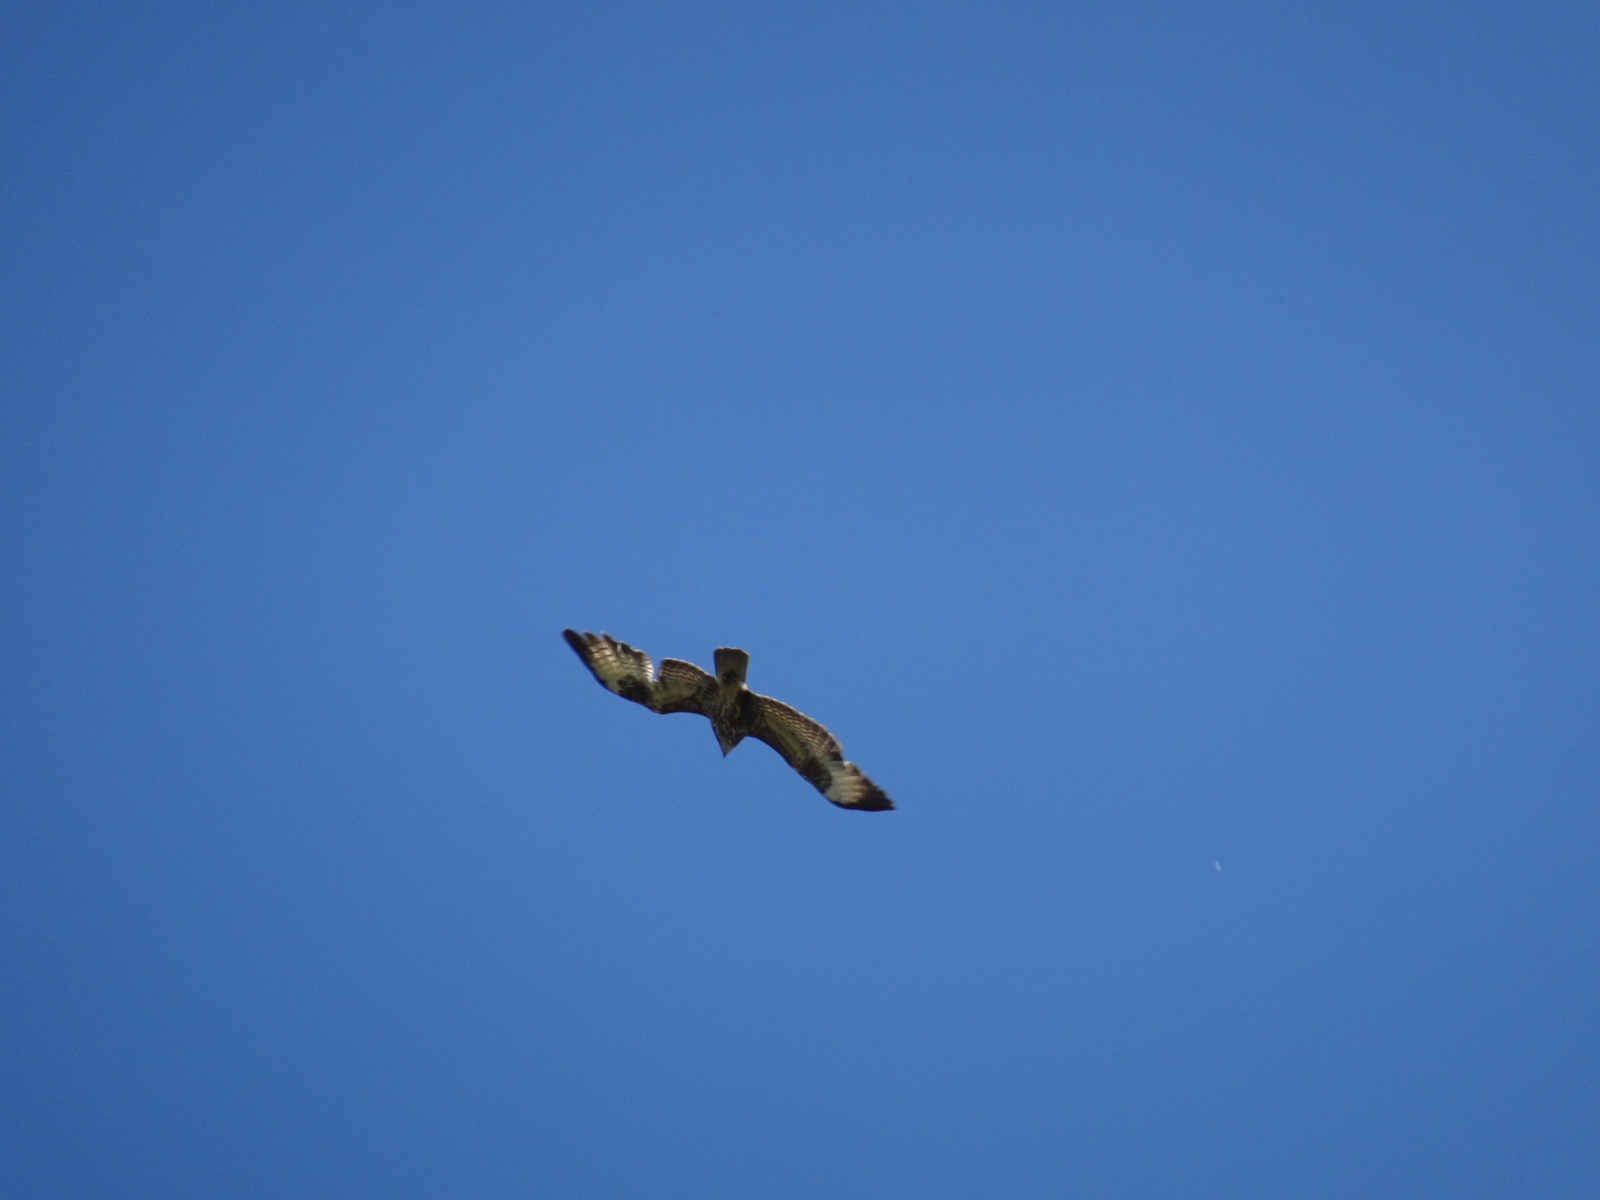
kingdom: Animalia
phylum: Chordata
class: Aves
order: Accipitriformes
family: Accipitridae
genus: Buteo
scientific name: Buteo buteo
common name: Common buzzard
